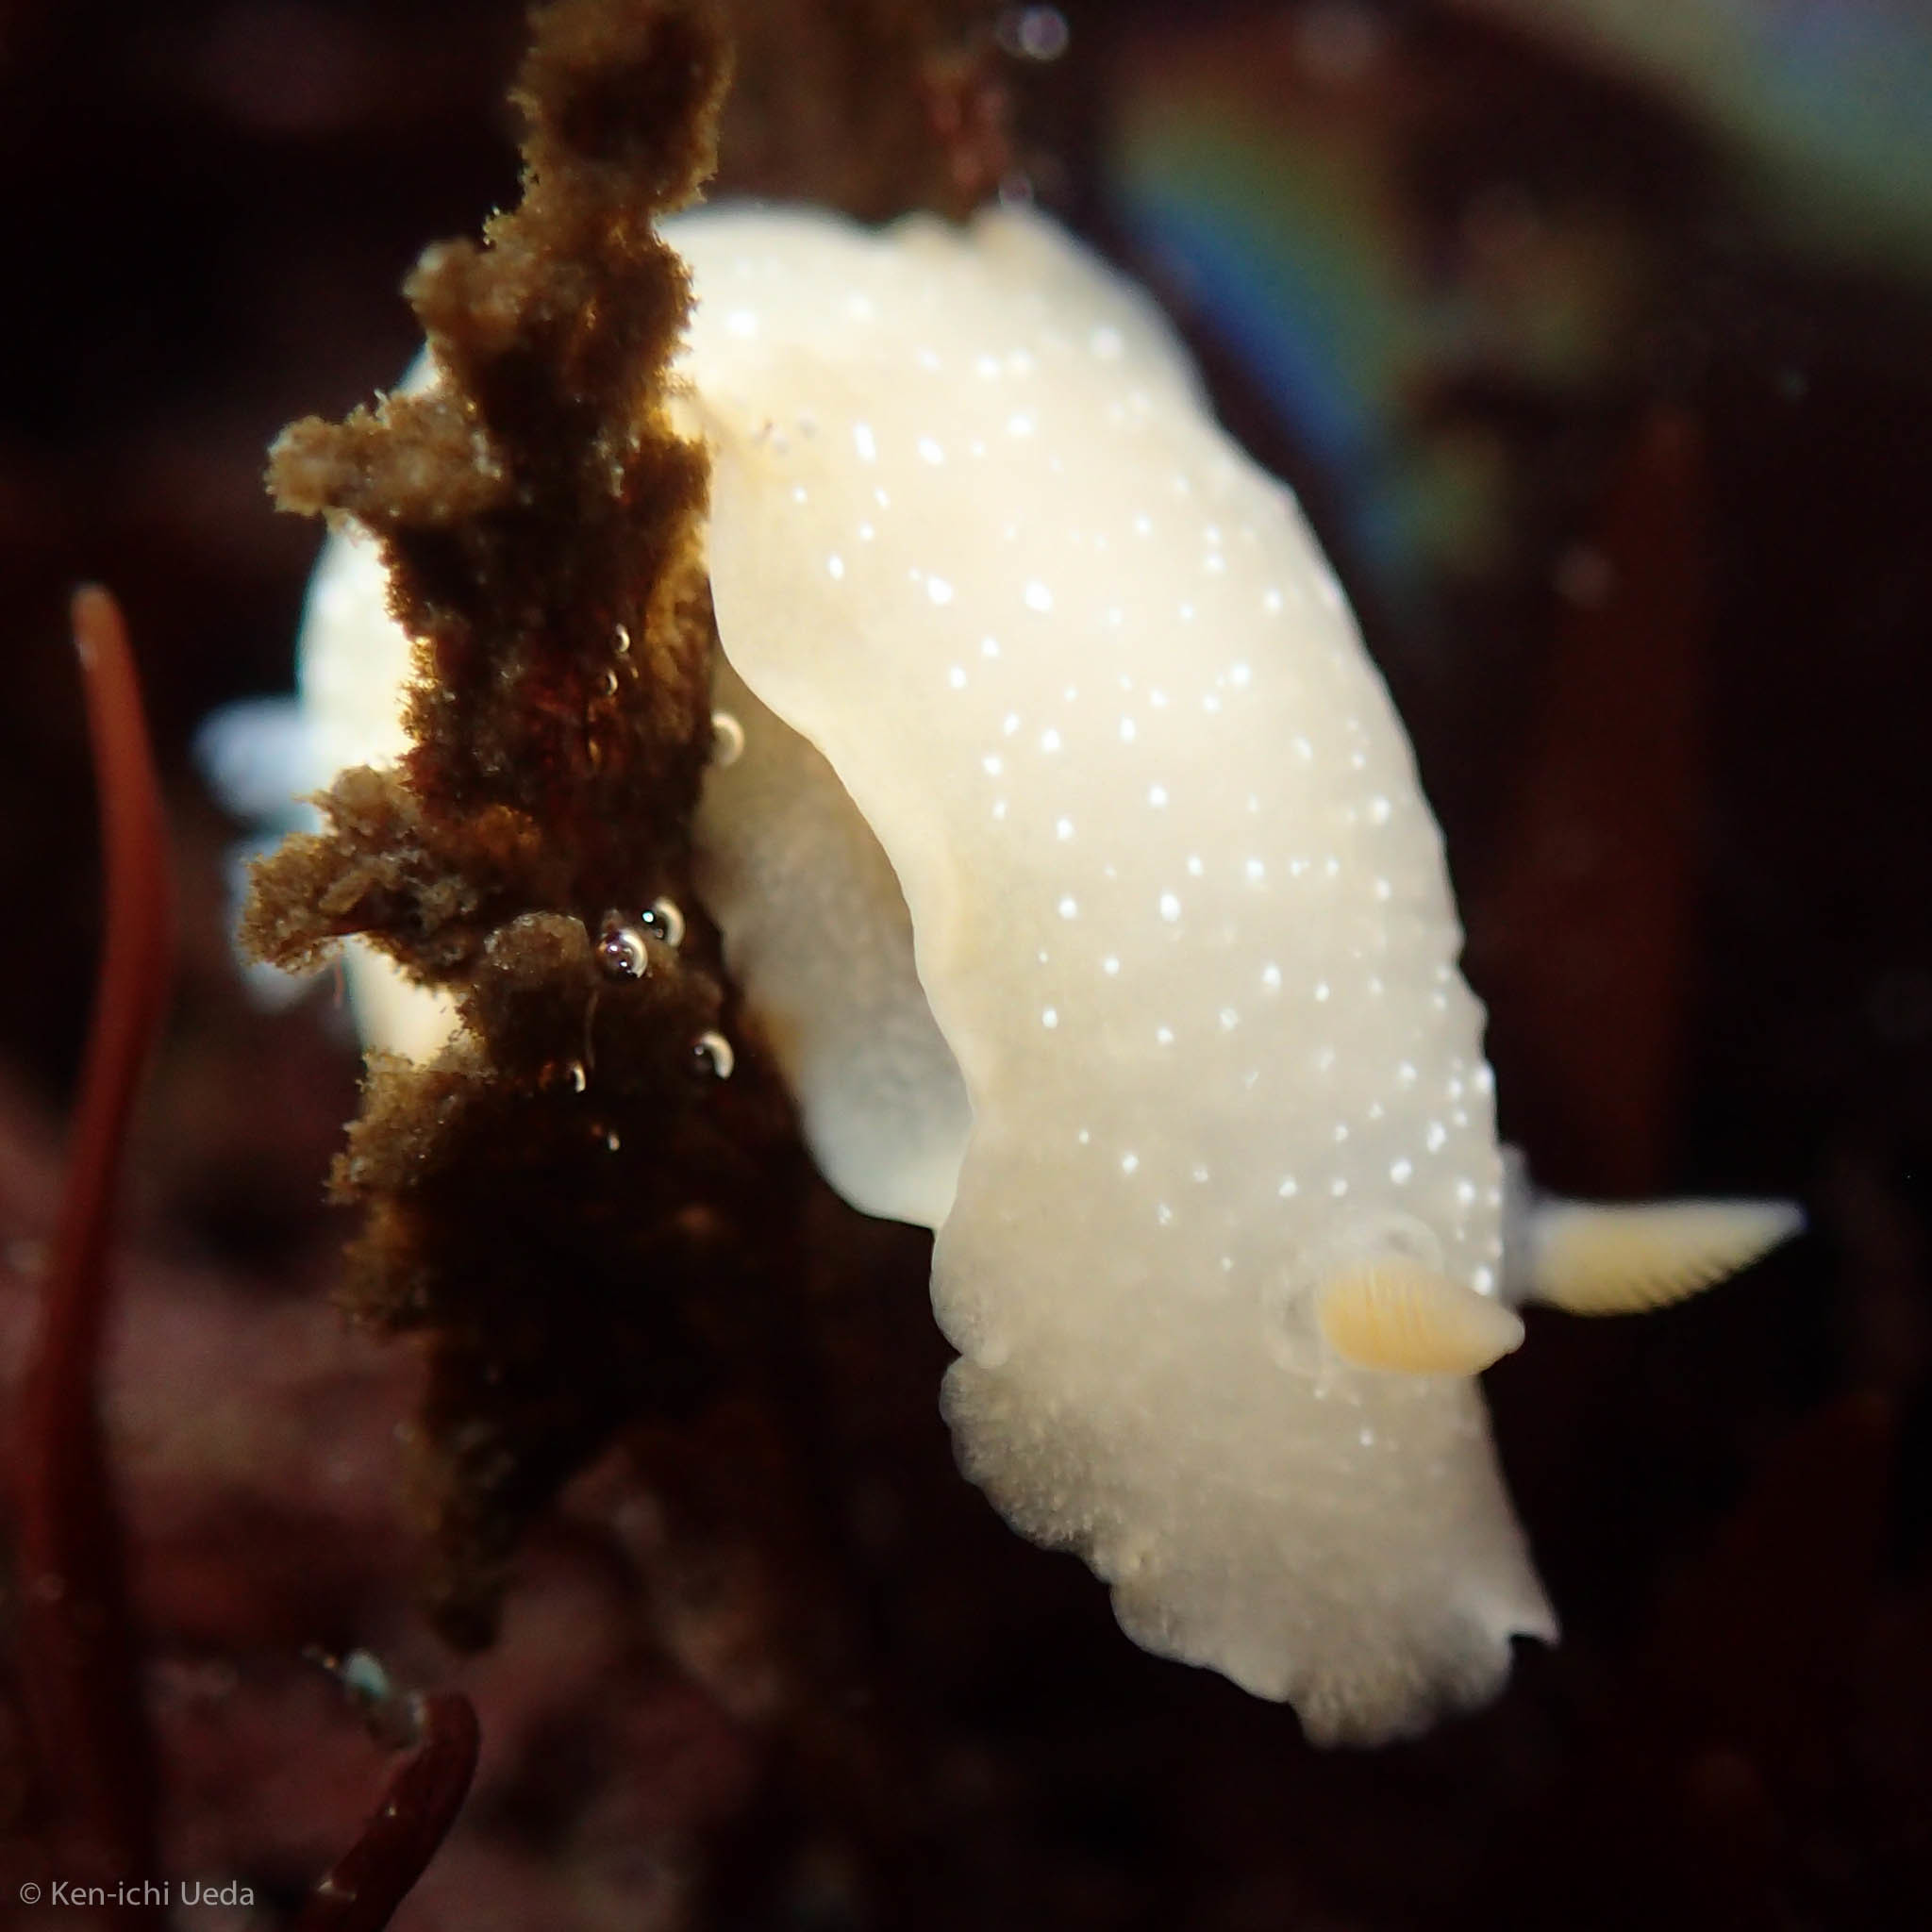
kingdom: Animalia
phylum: Mollusca
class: Gastropoda
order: Nudibranchia
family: Dendrodorididae
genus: Doriopsilla
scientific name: Doriopsilla fulva
